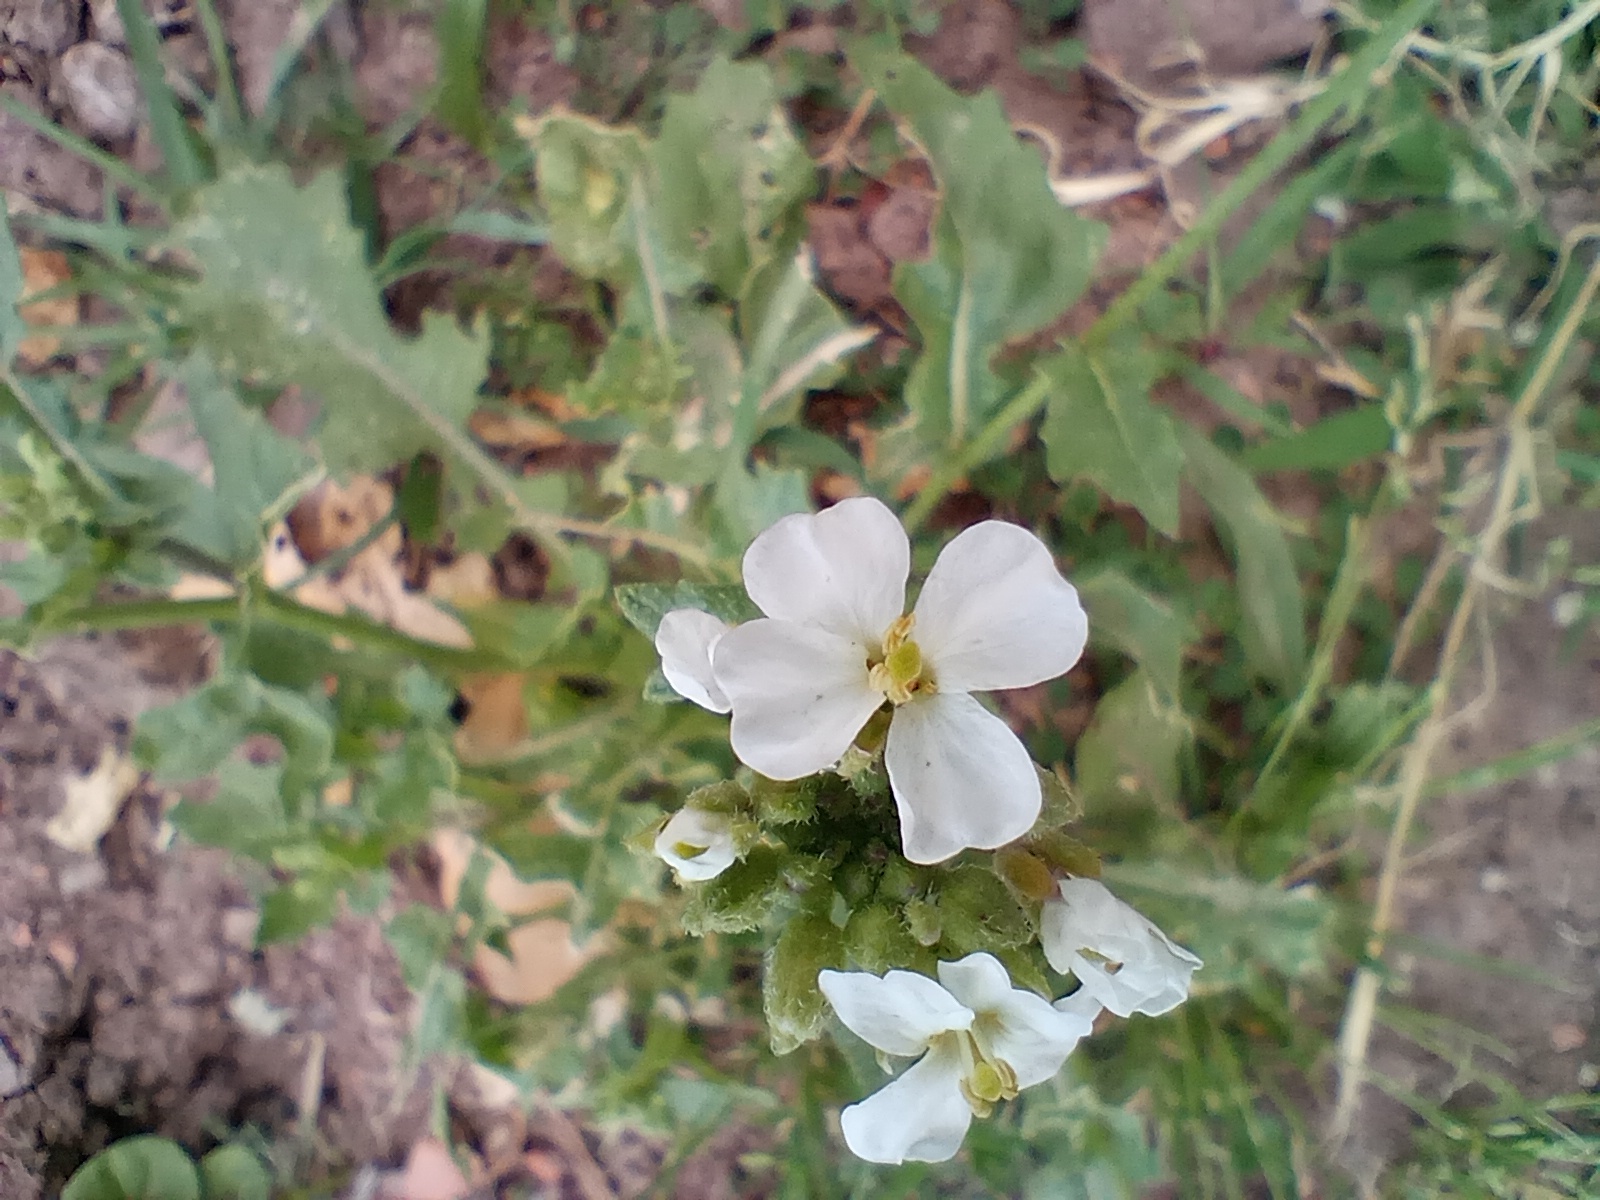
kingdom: Plantae
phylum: Tracheophyta
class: Magnoliopsida
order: Brassicales
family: Brassicaceae
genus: Diplotaxis
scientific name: Diplotaxis erucoides
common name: White rocket
